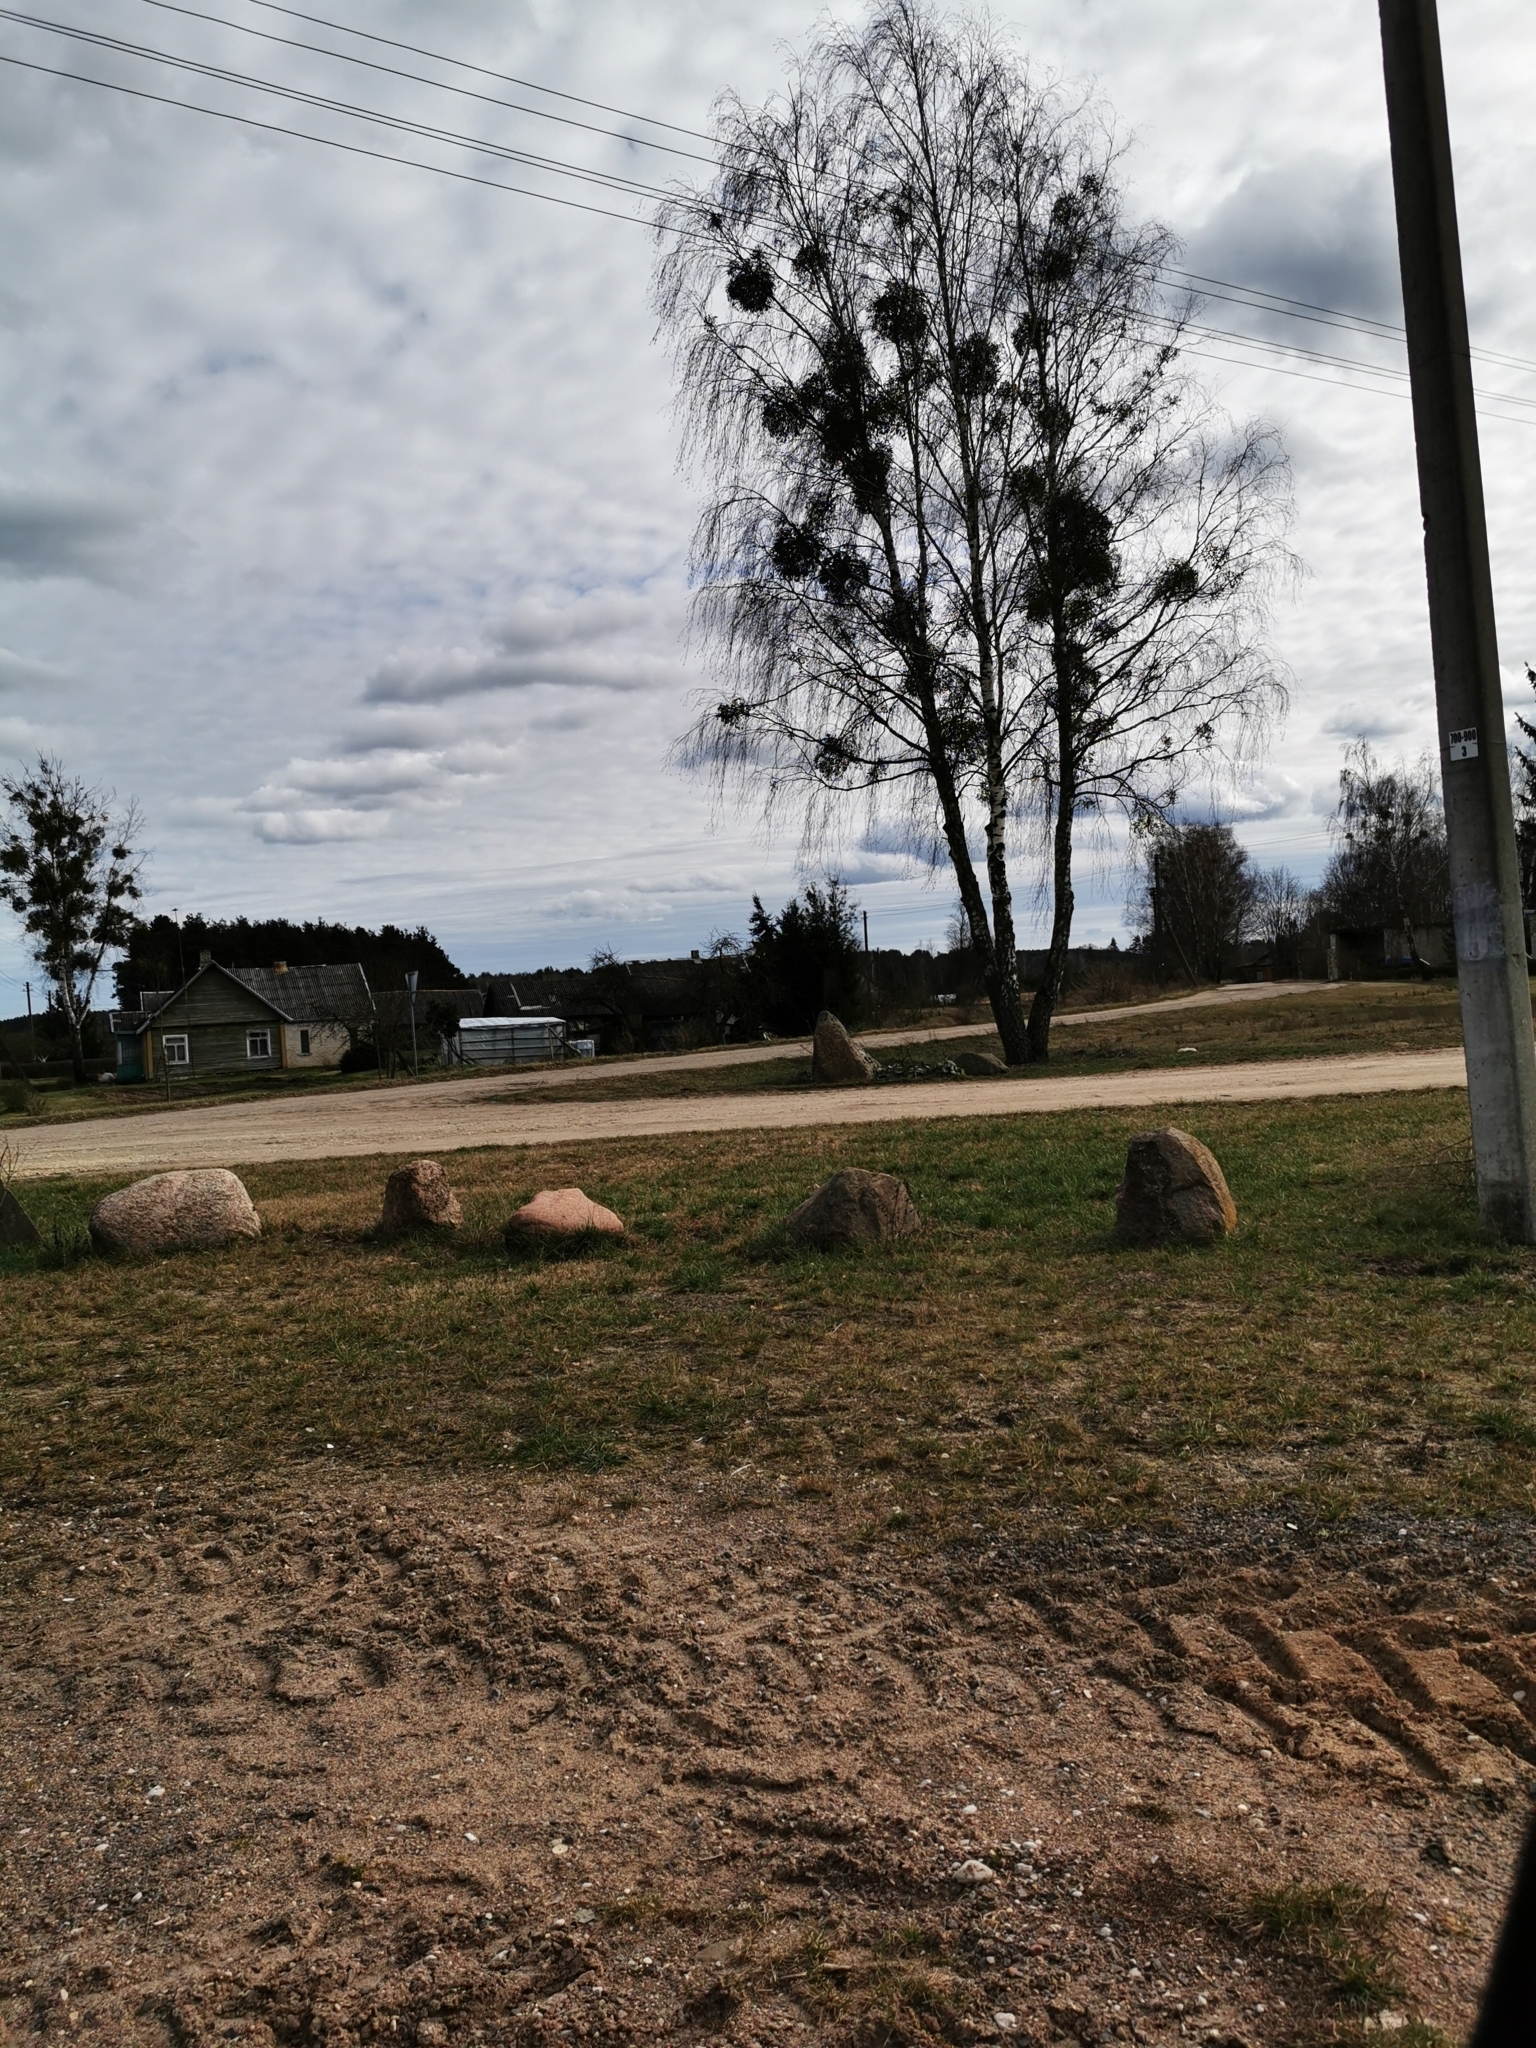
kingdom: Plantae
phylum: Tracheophyta
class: Magnoliopsida
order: Santalales
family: Viscaceae
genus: Viscum
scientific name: Viscum album
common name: Mistletoe
